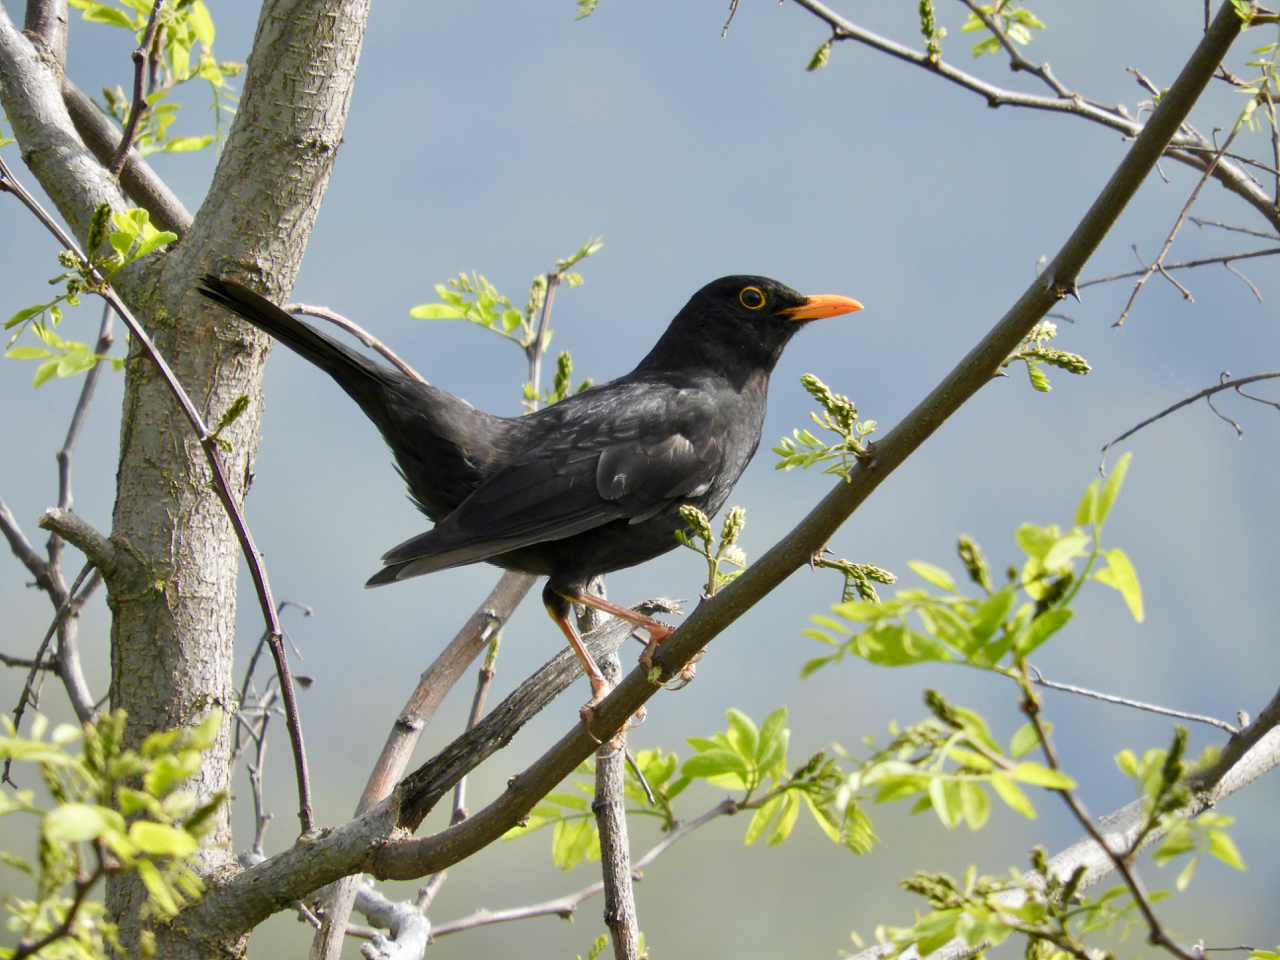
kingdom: Animalia
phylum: Chordata
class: Aves
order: Passeriformes
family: Turdidae
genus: Turdus
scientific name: Turdus merula
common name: Common blackbird
